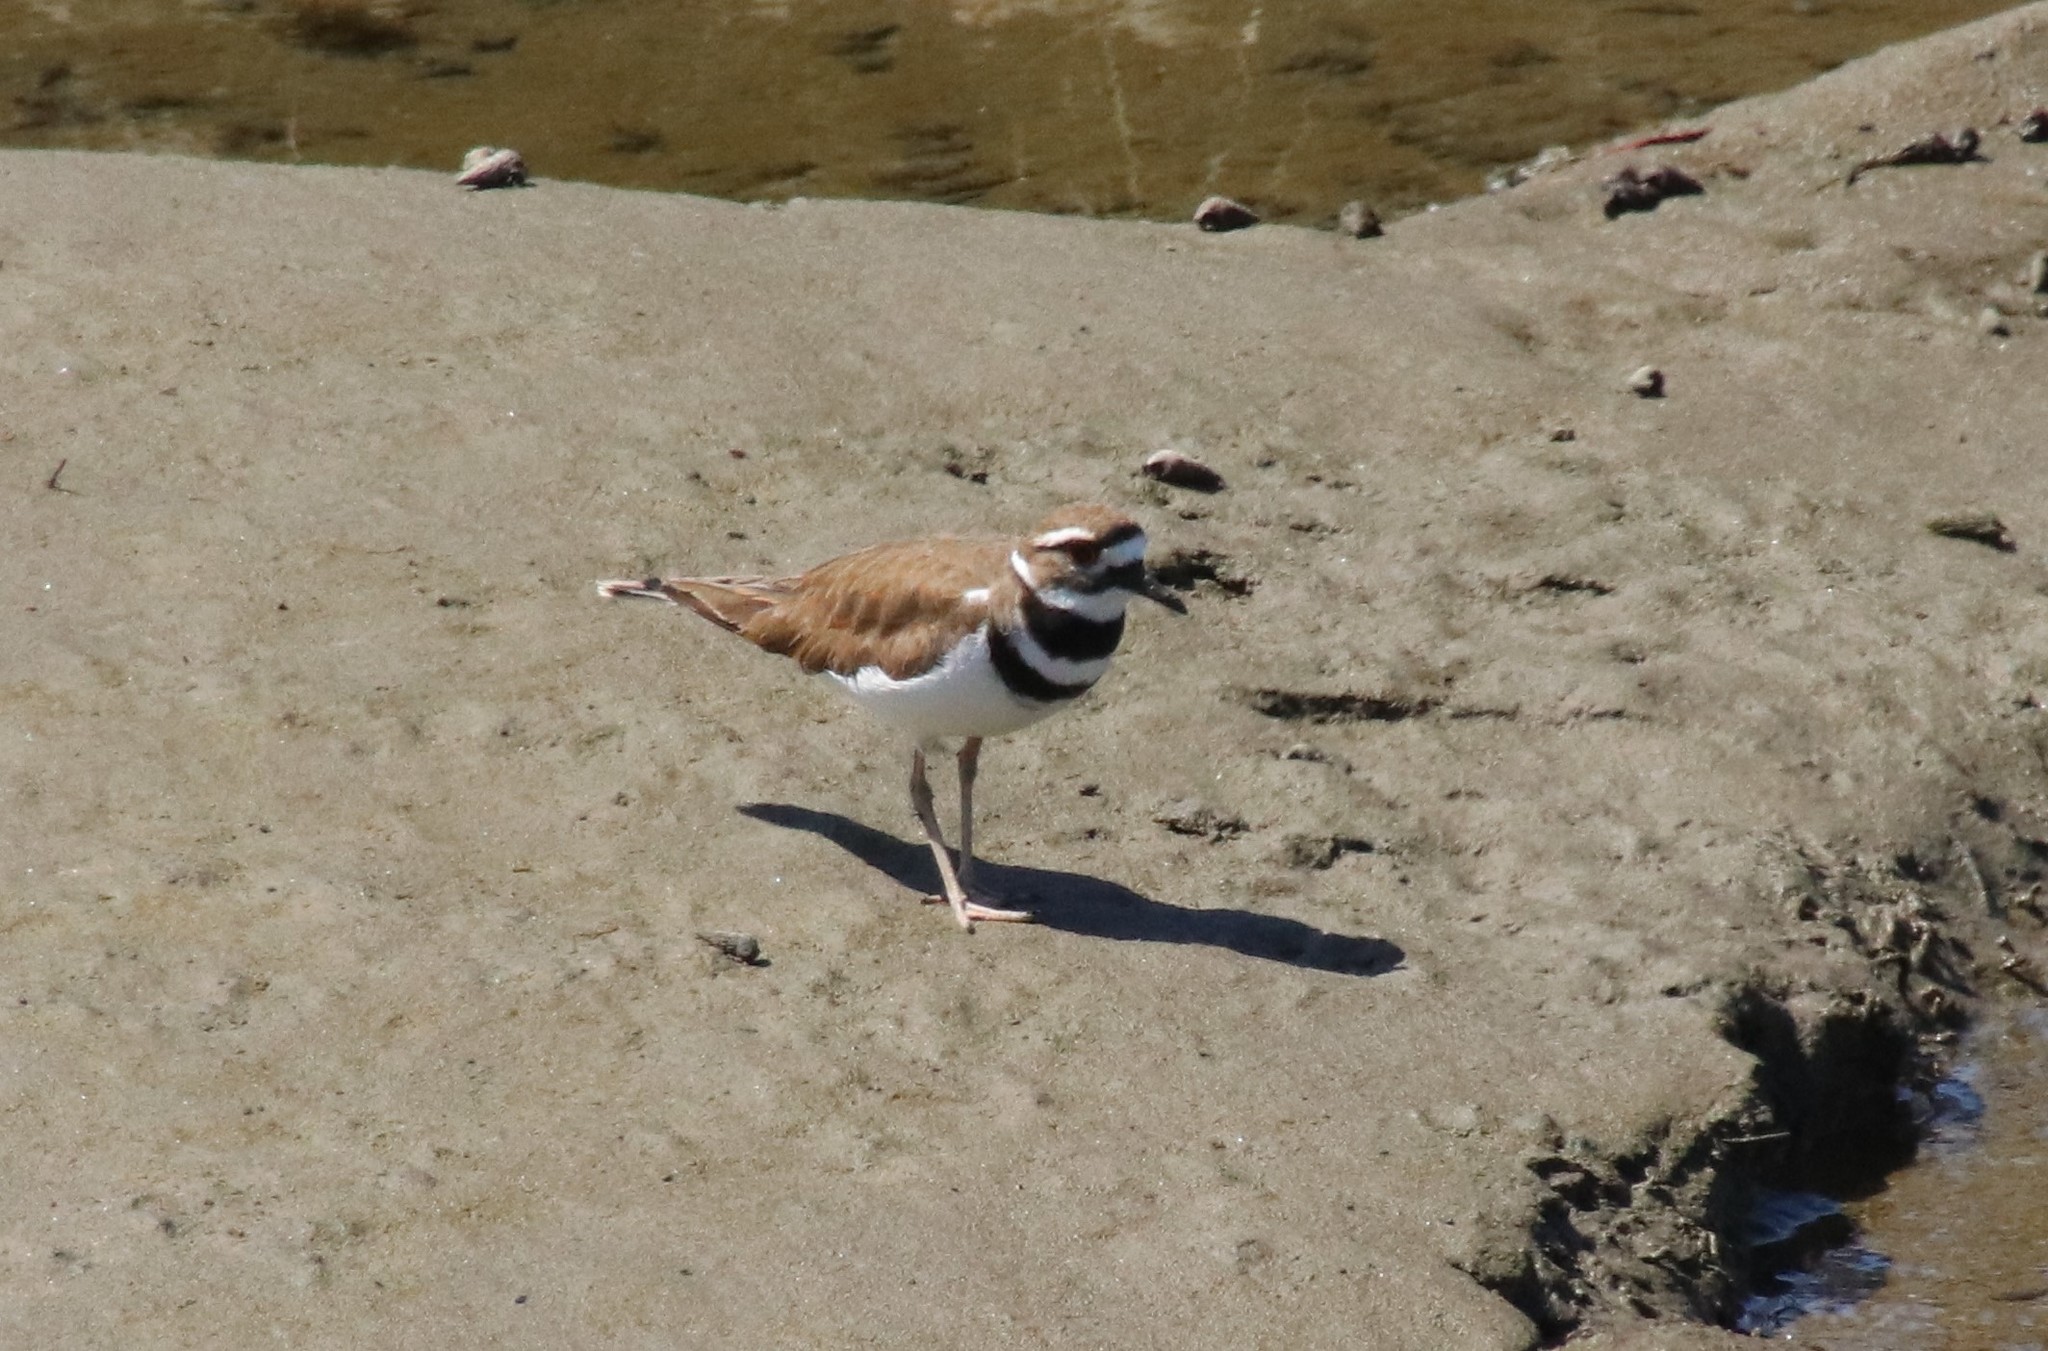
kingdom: Animalia
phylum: Chordata
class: Aves
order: Charadriiformes
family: Charadriidae
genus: Charadrius
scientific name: Charadrius vociferus
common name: Killdeer
